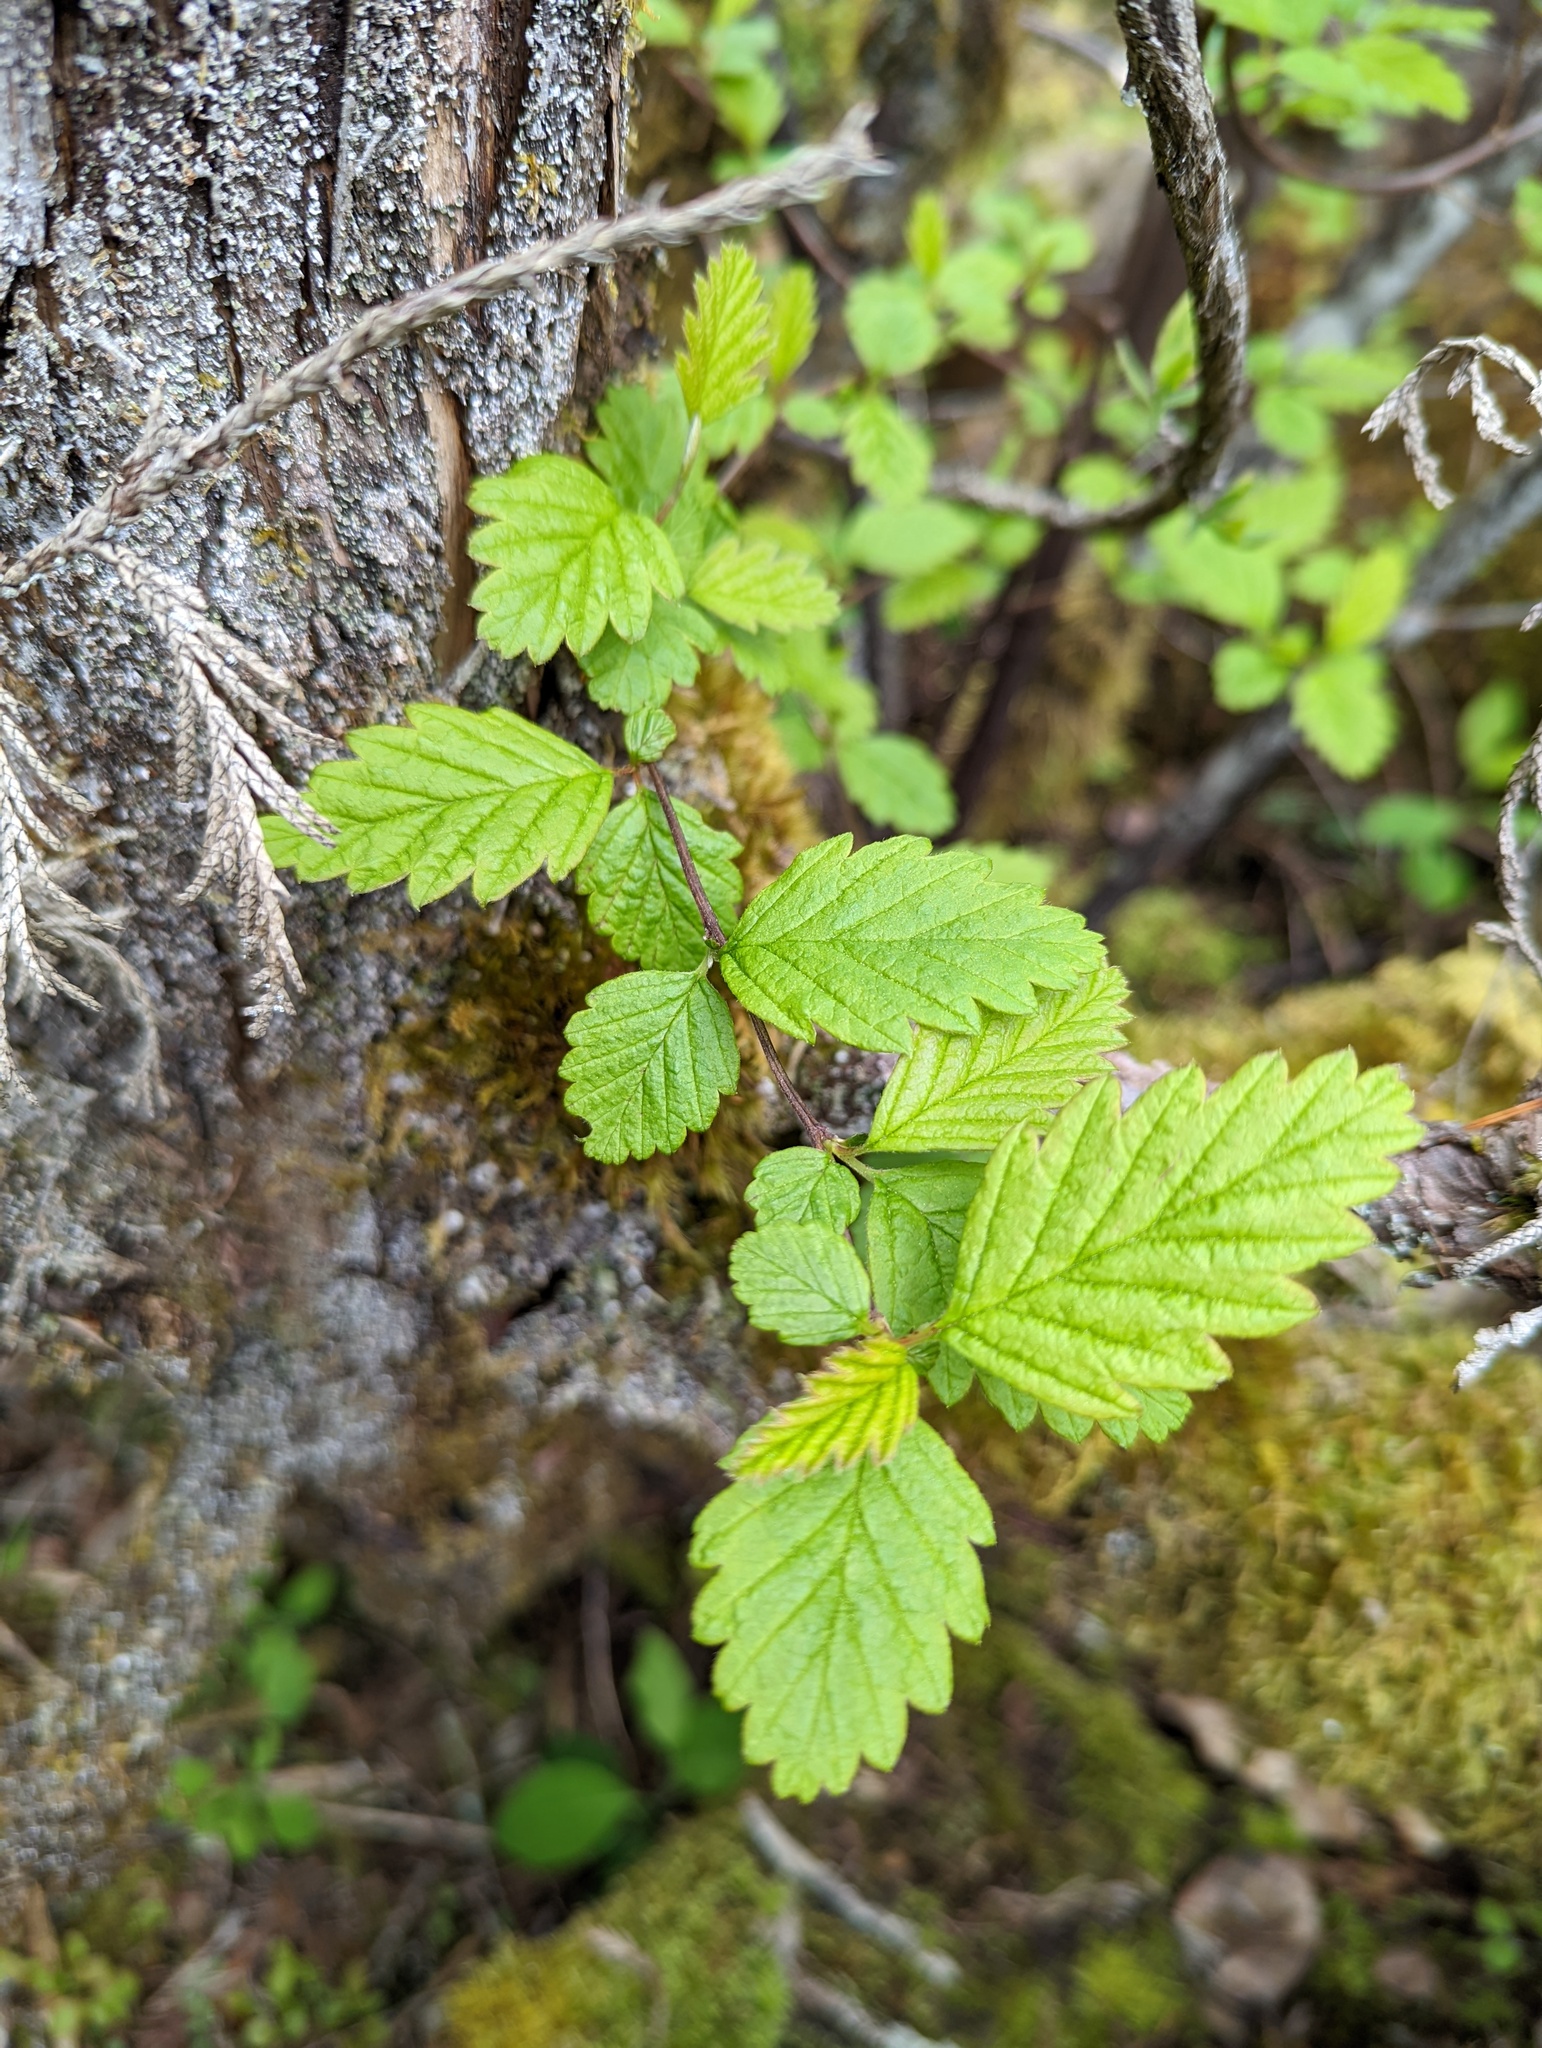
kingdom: Plantae
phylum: Tracheophyta
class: Magnoliopsida
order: Rosales
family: Rosaceae
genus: Holodiscus
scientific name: Holodiscus discolor
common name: Oceanspray
